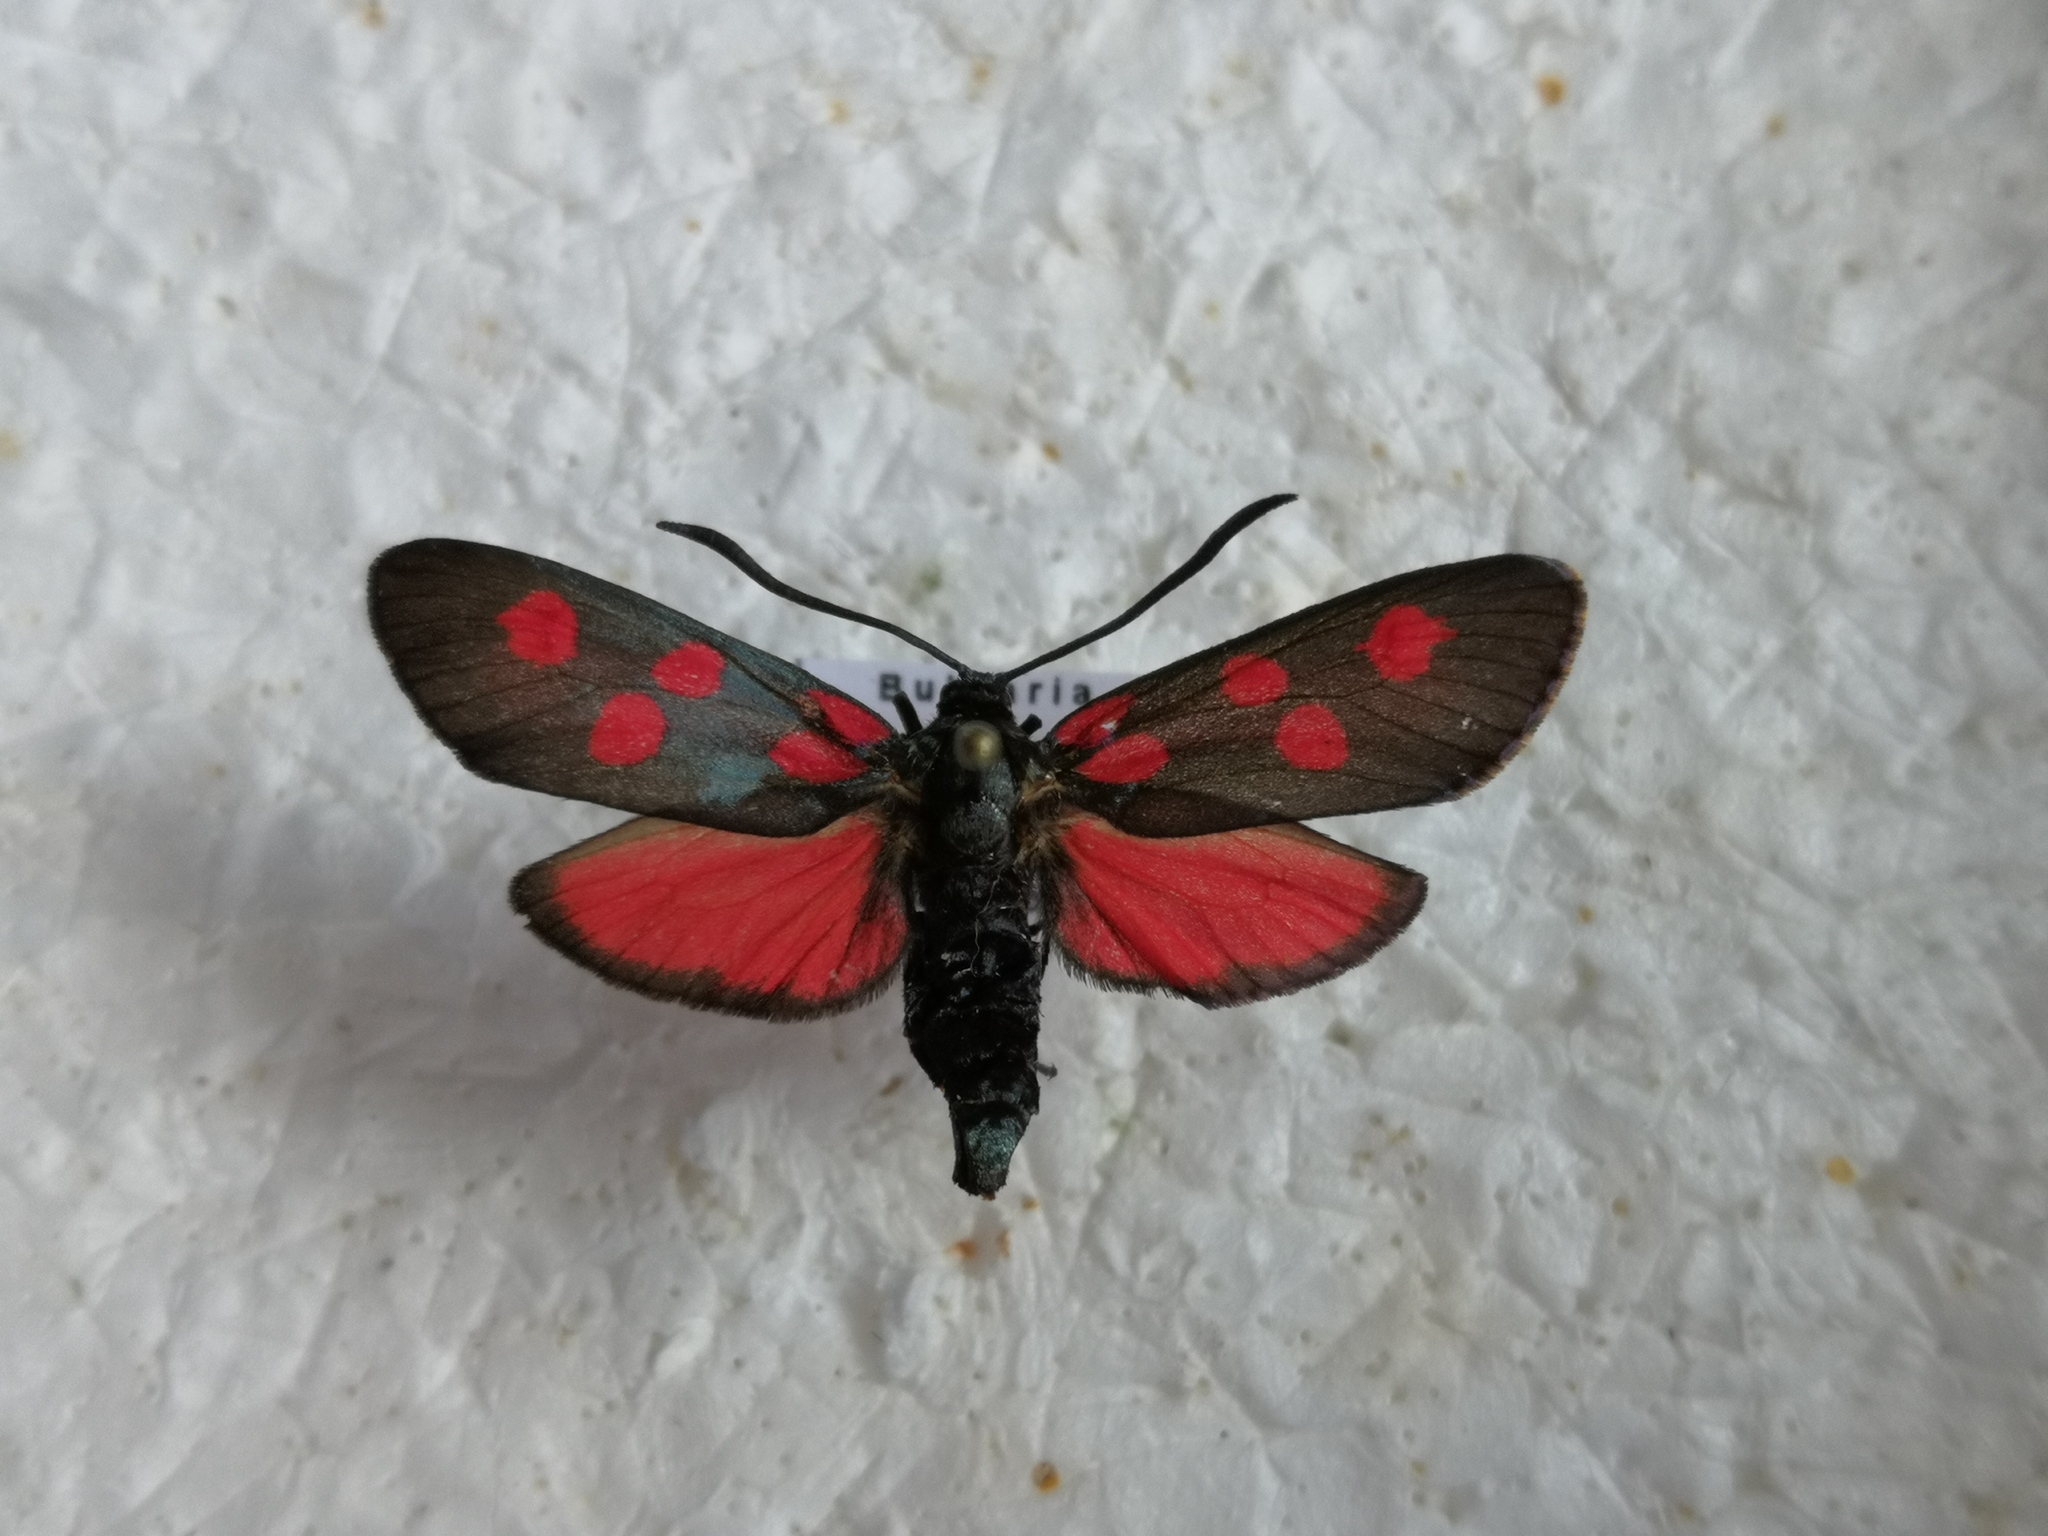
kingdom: Animalia
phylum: Arthropoda
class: Insecta
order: Lepidoptera
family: Zygaenidae
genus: Zygaena
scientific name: Zygaena angelicae
